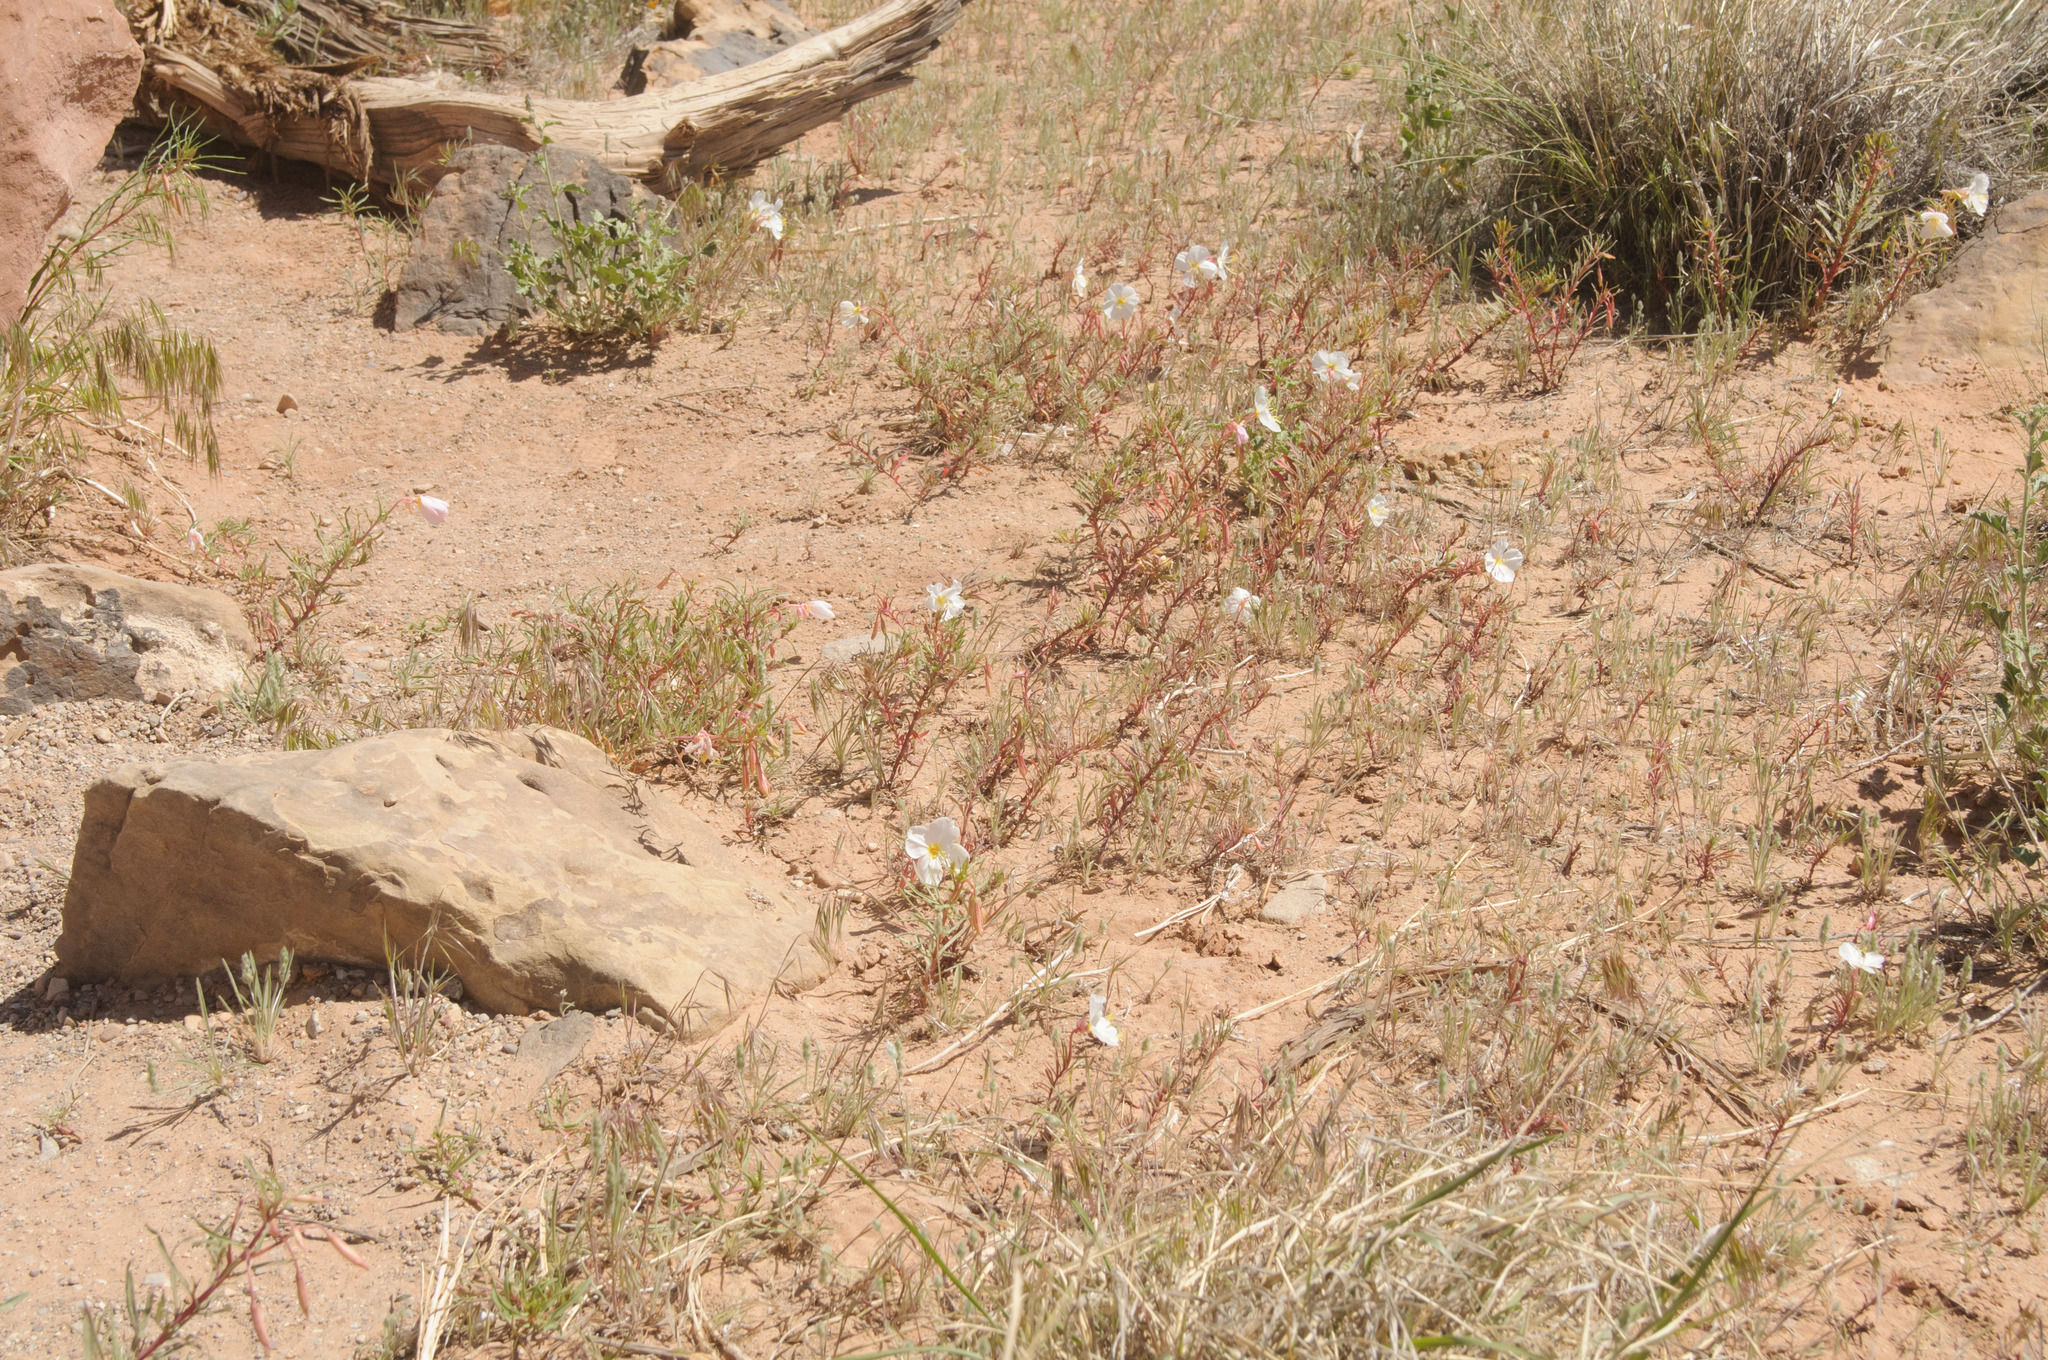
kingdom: Plantae
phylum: Tracheophyta
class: Magnoliopsida
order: Myrtales
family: Onagraceae
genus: Oenothera
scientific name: Oenothera pallida
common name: Pale evening-primrose
